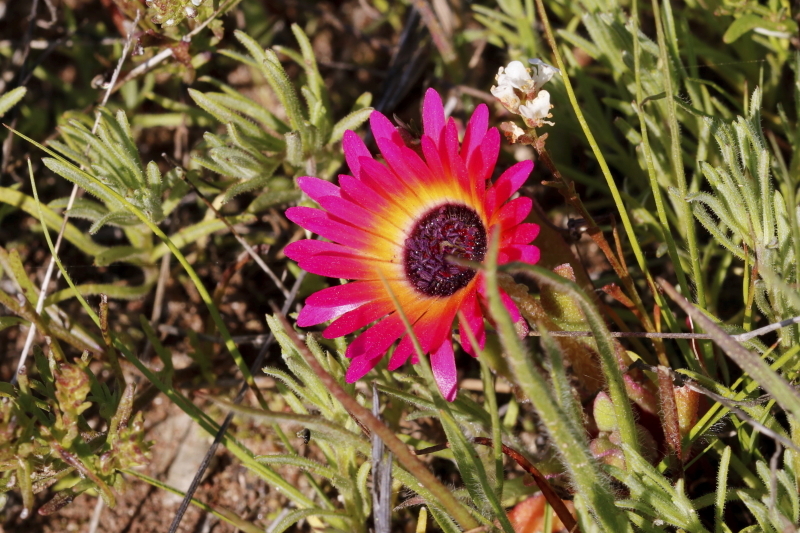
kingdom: Plantae
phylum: Tracheophyta
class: Magnoliopsida
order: Caryophyllales
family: Aizoaceae
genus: Cleretum
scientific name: Cleretum bellidiforme
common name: Livingstone daisy
